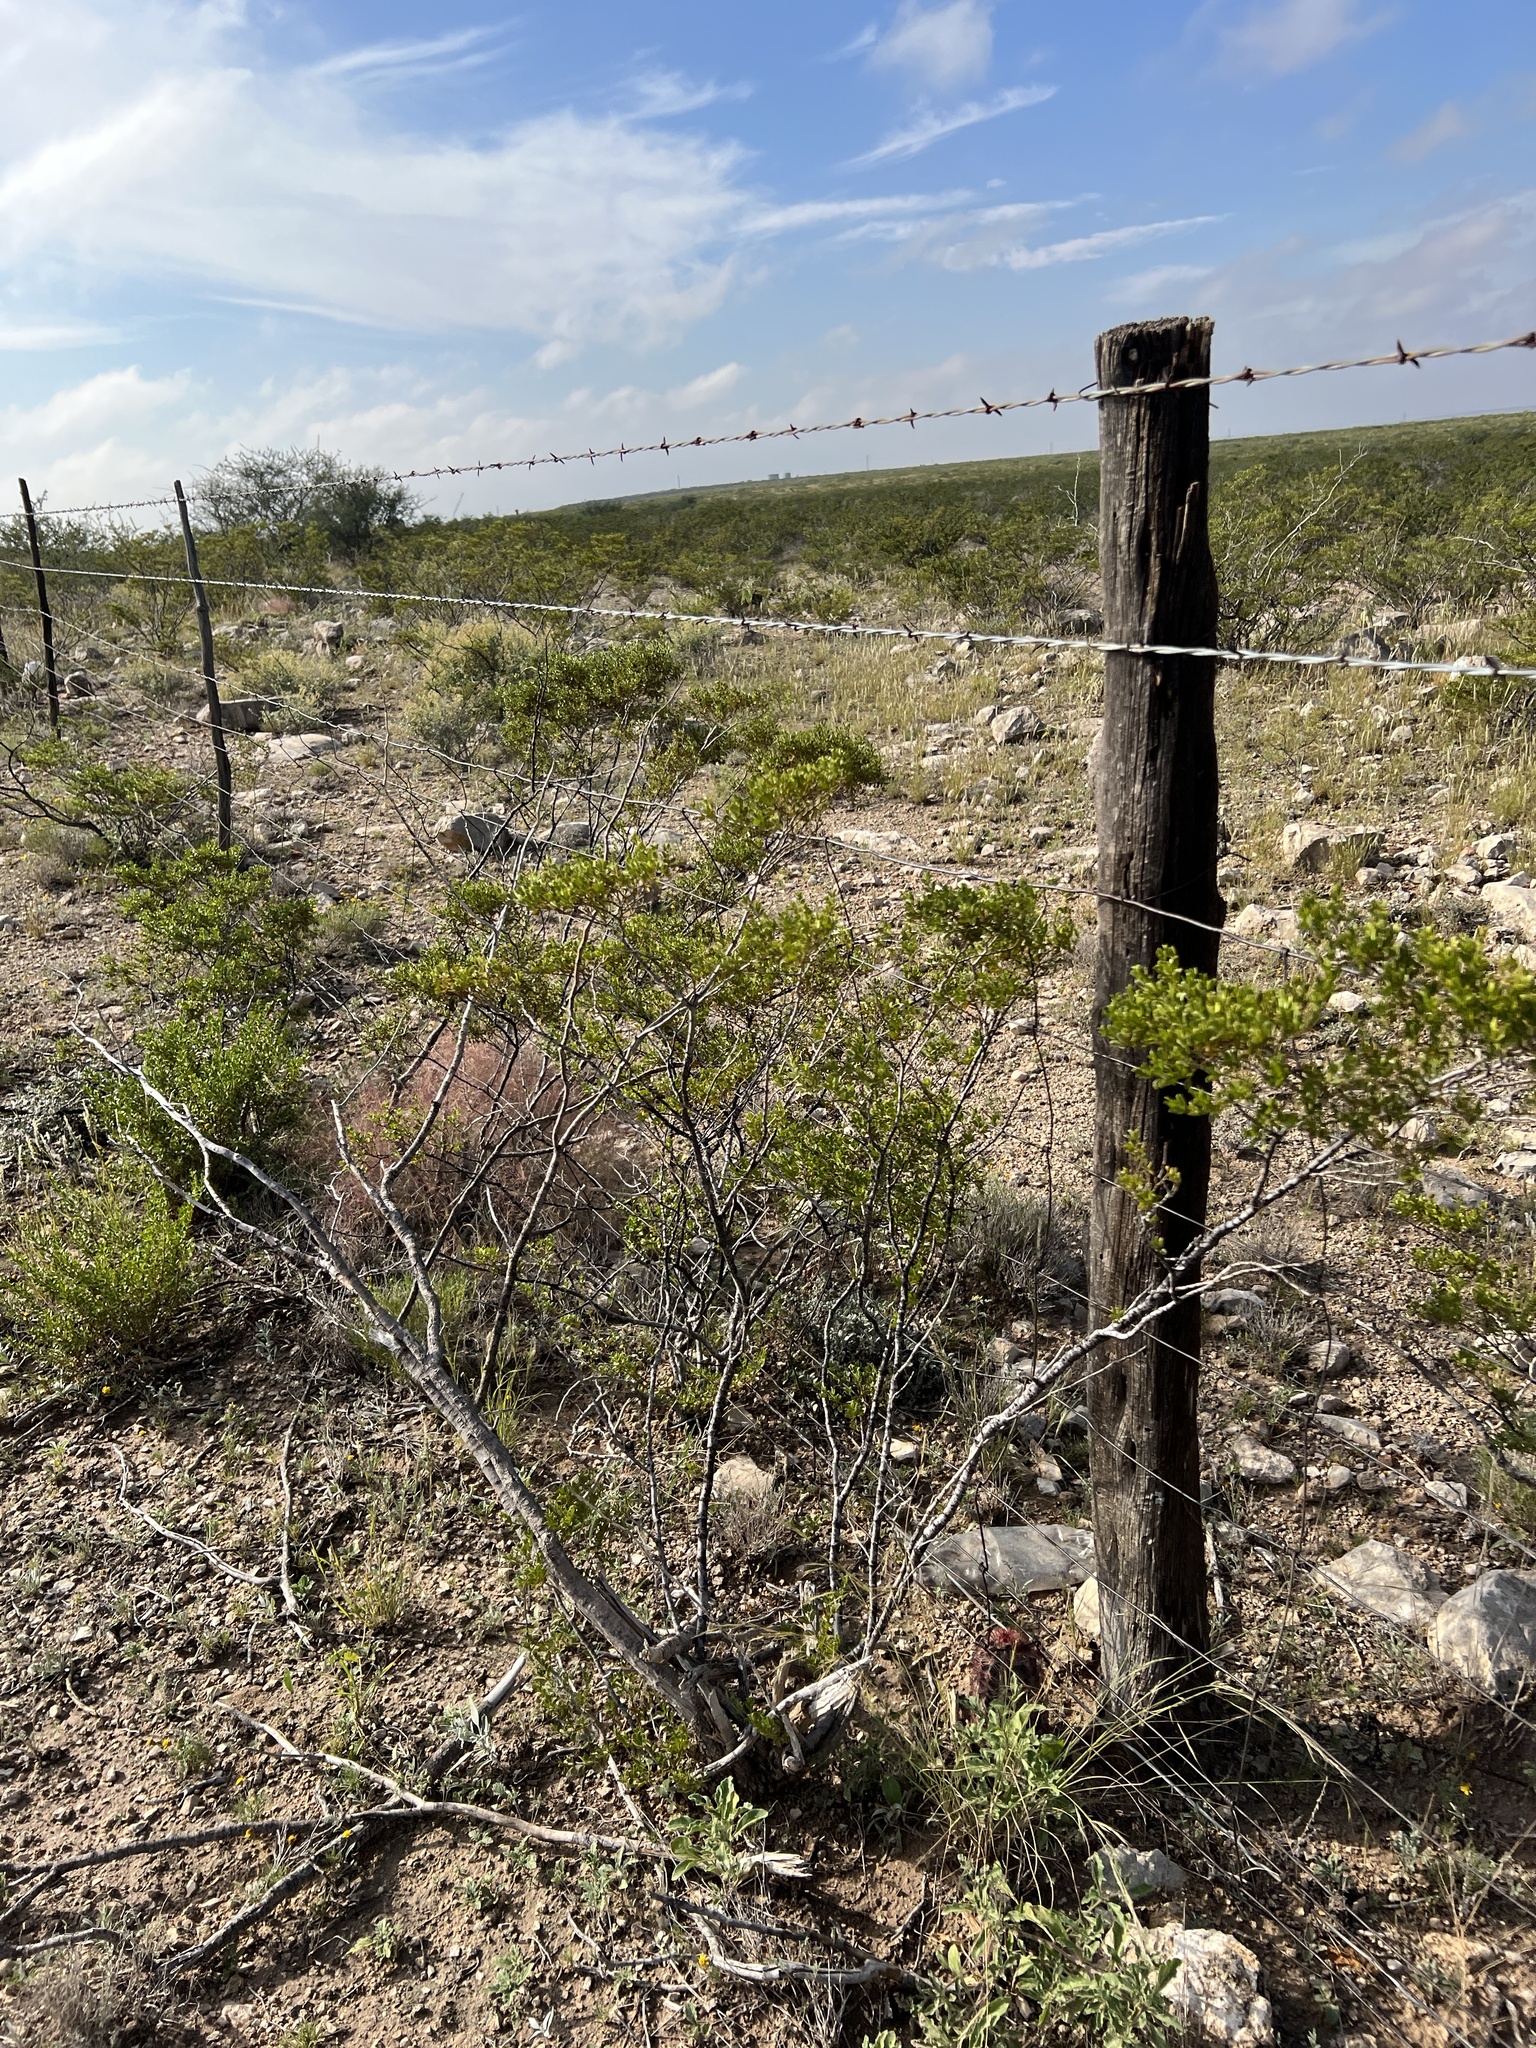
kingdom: Plantae
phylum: Tracheophyta
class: Magnoliopsida
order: Zygophyllales
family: Zygophyllaceae
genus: Larrea
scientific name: Larrea tridentata
